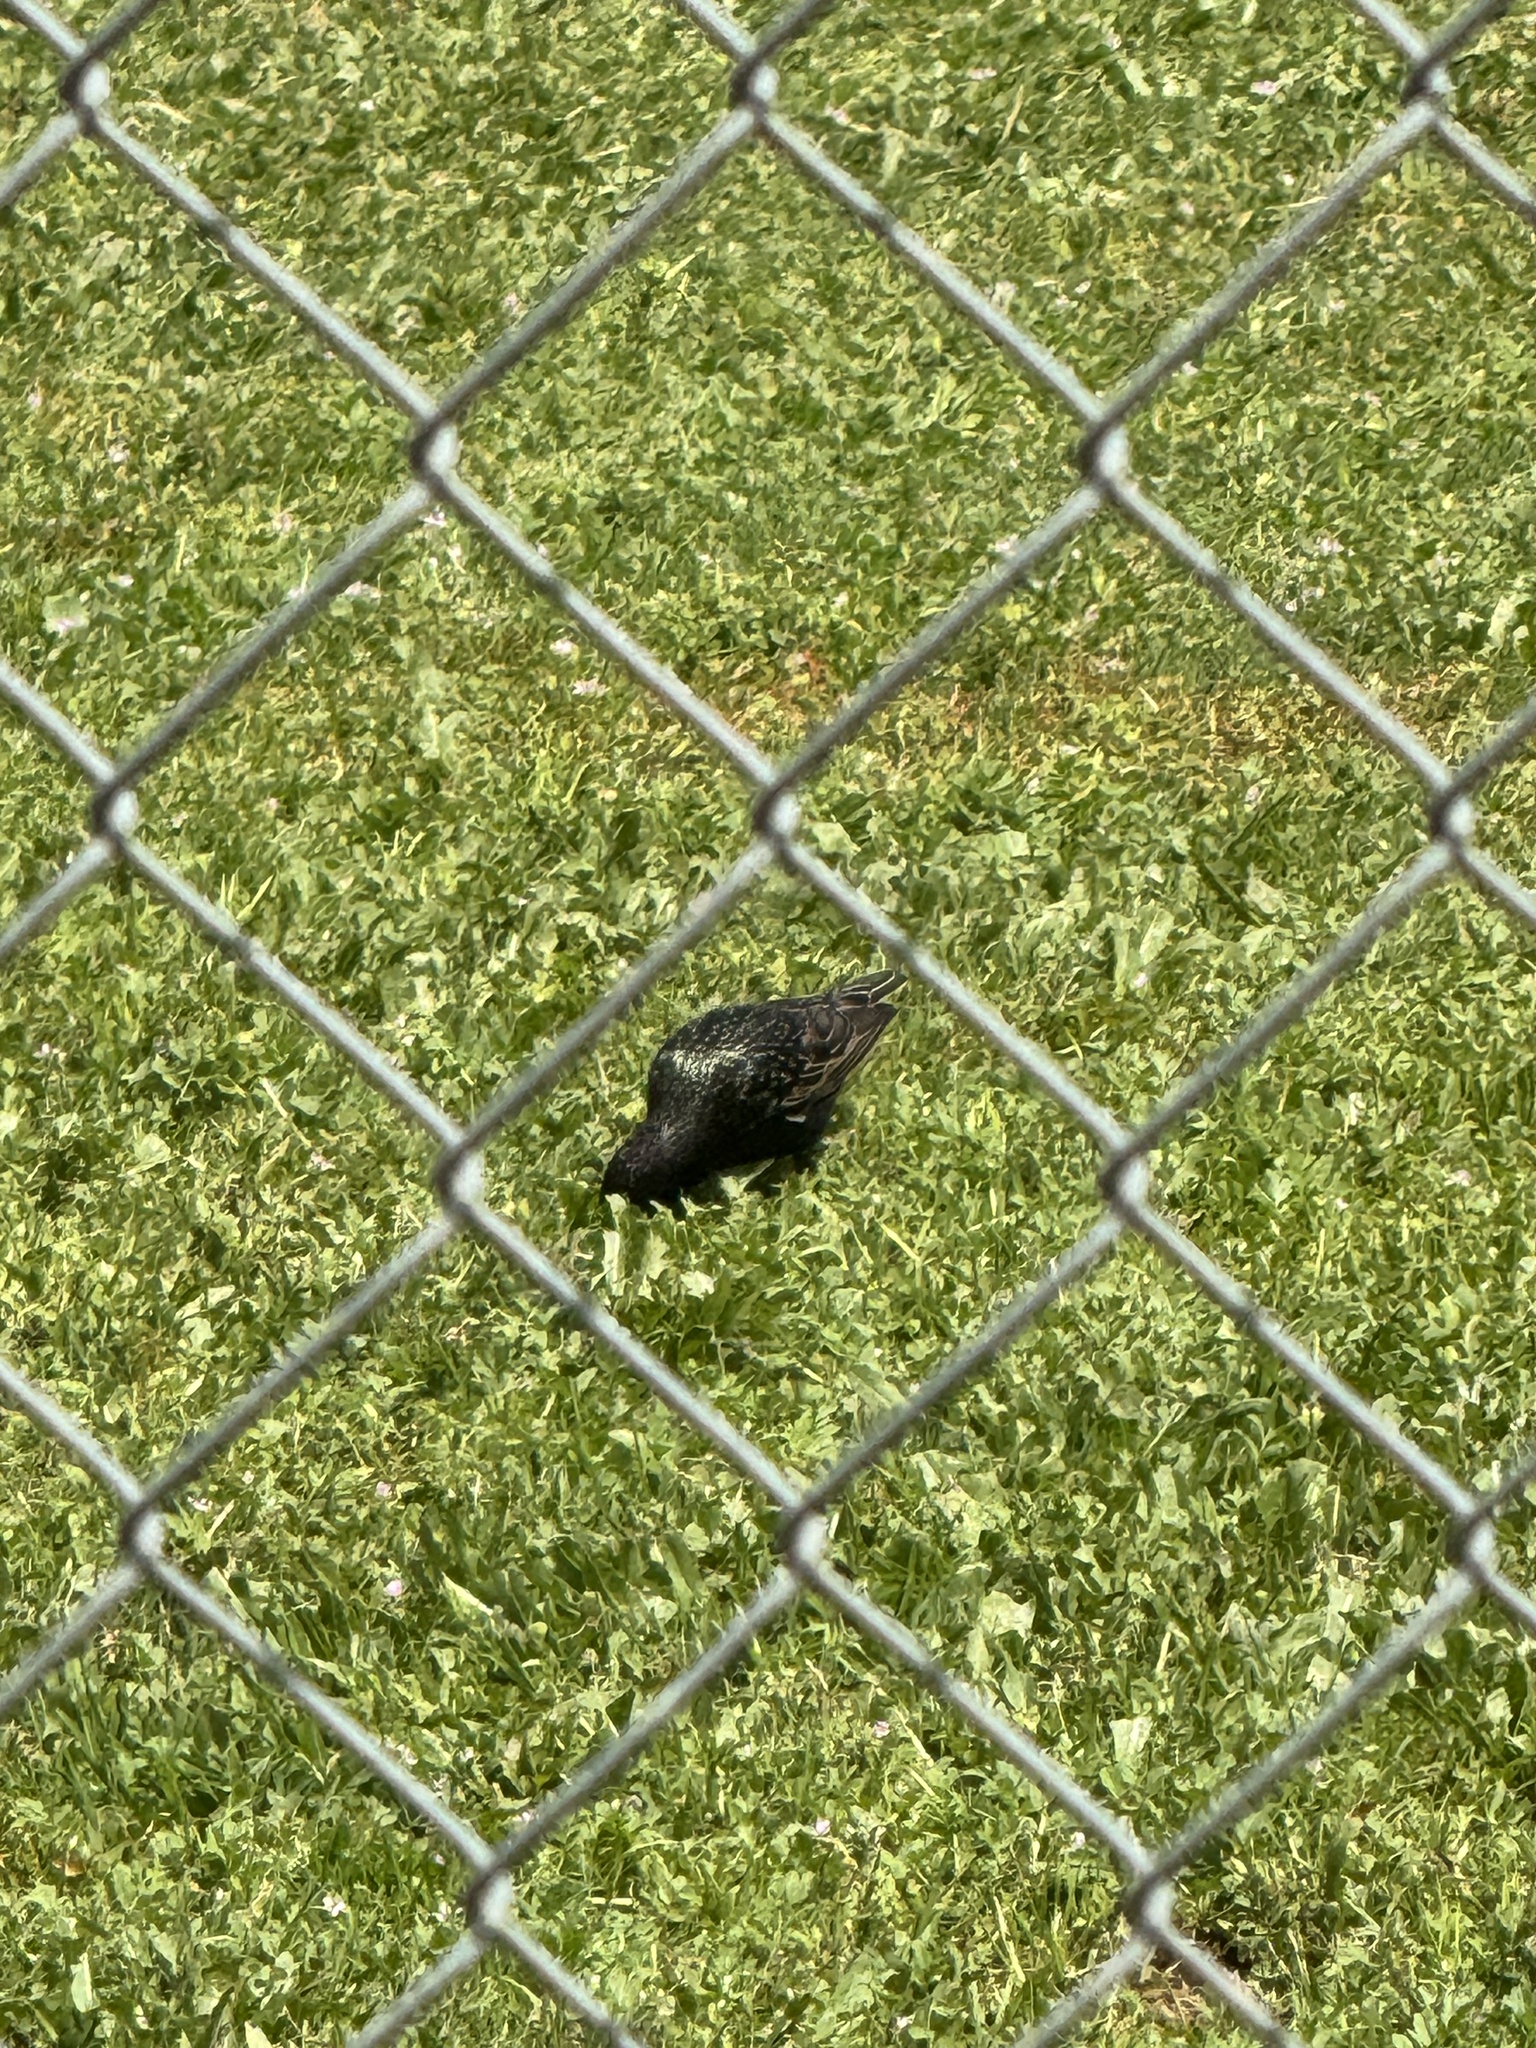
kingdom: Animalia
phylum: Chordata
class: Aves
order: Passeriformes
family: Sturnidae
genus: Sturnus
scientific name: Sturnus vulgaris
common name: Common starling
